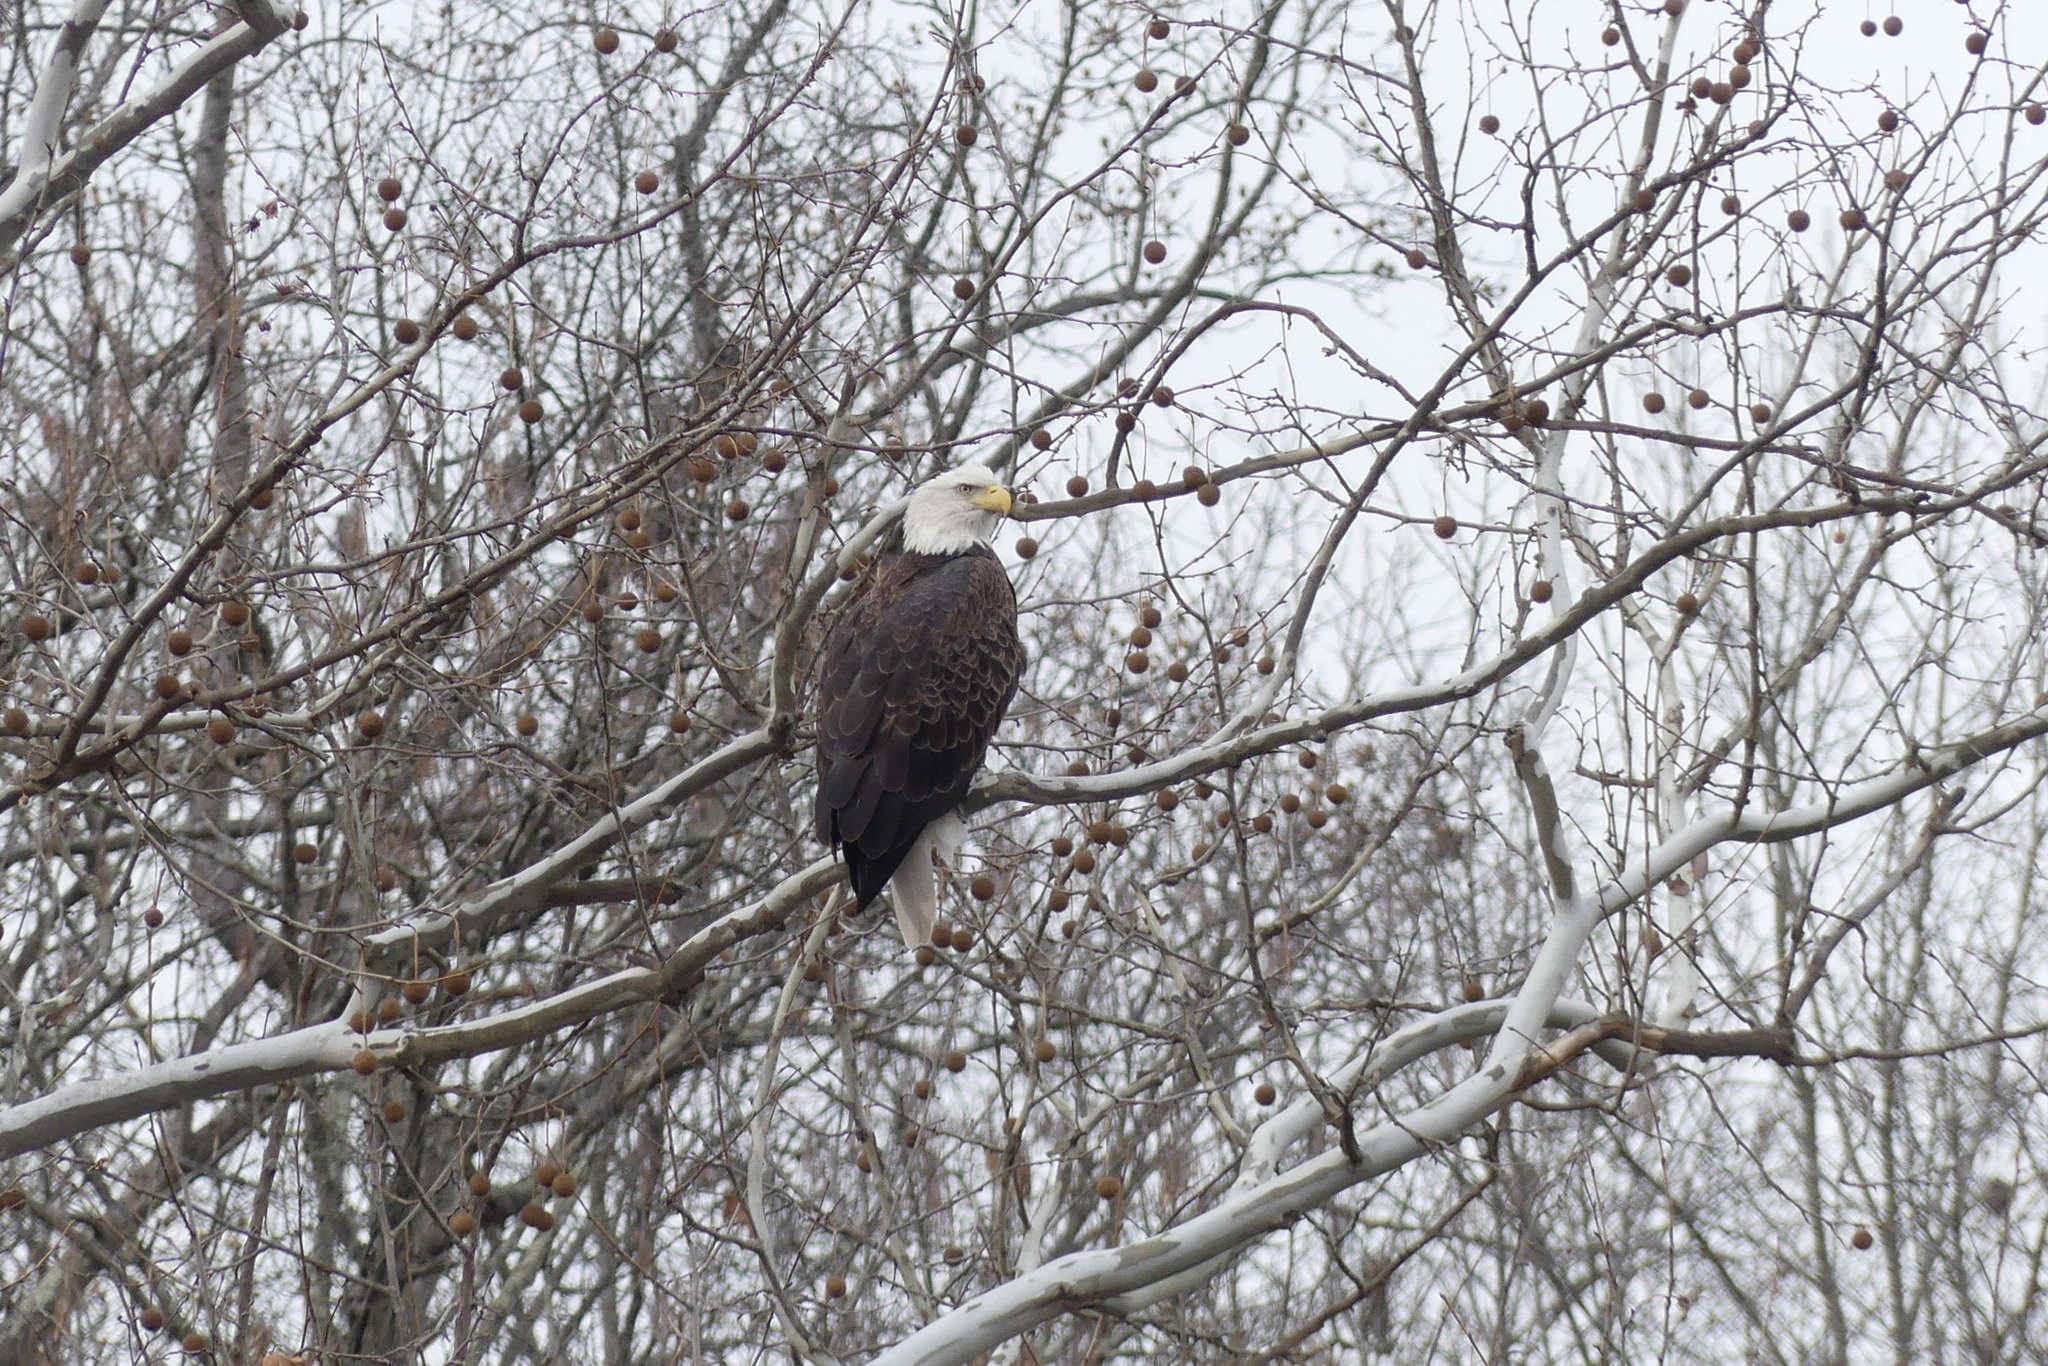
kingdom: Animalia
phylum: Chordata
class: Aves
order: Accipitriformes
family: Accipitridae
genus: Haliaeetus
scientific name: Haliaeetus leucocephalus
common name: Bald eagle
